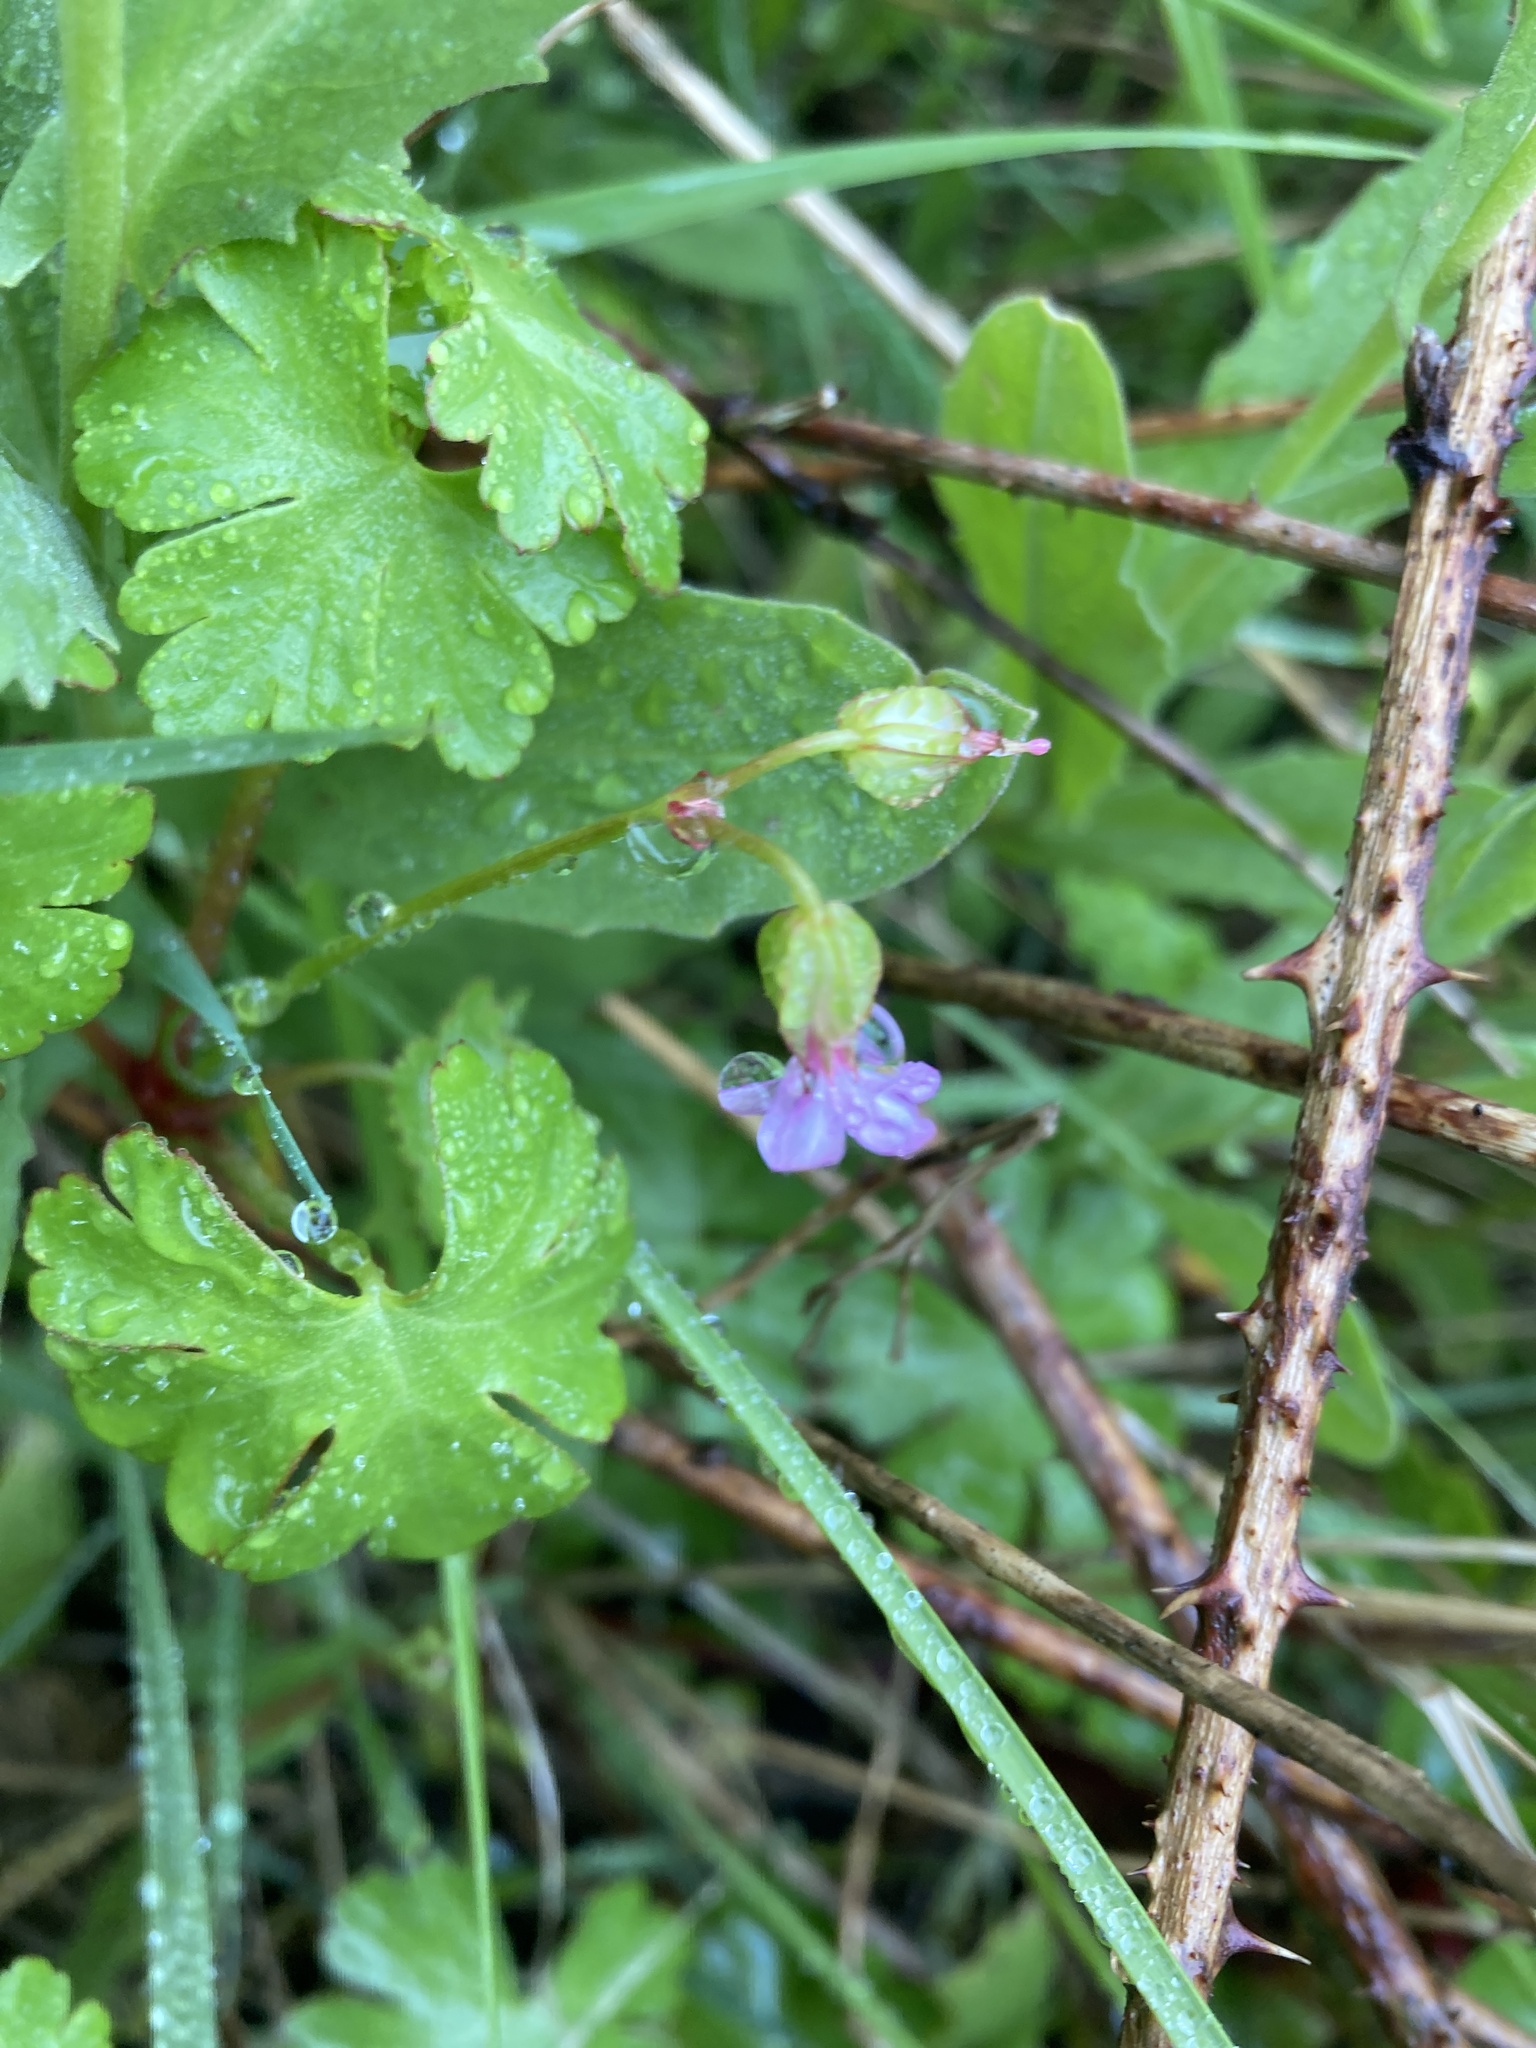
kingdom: Plantae
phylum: Tracheophyta
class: Magnoliopsida
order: Geraniales
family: Geraniaceae
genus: Geranium
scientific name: Geranium lucidum
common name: Shining crane's-bill
